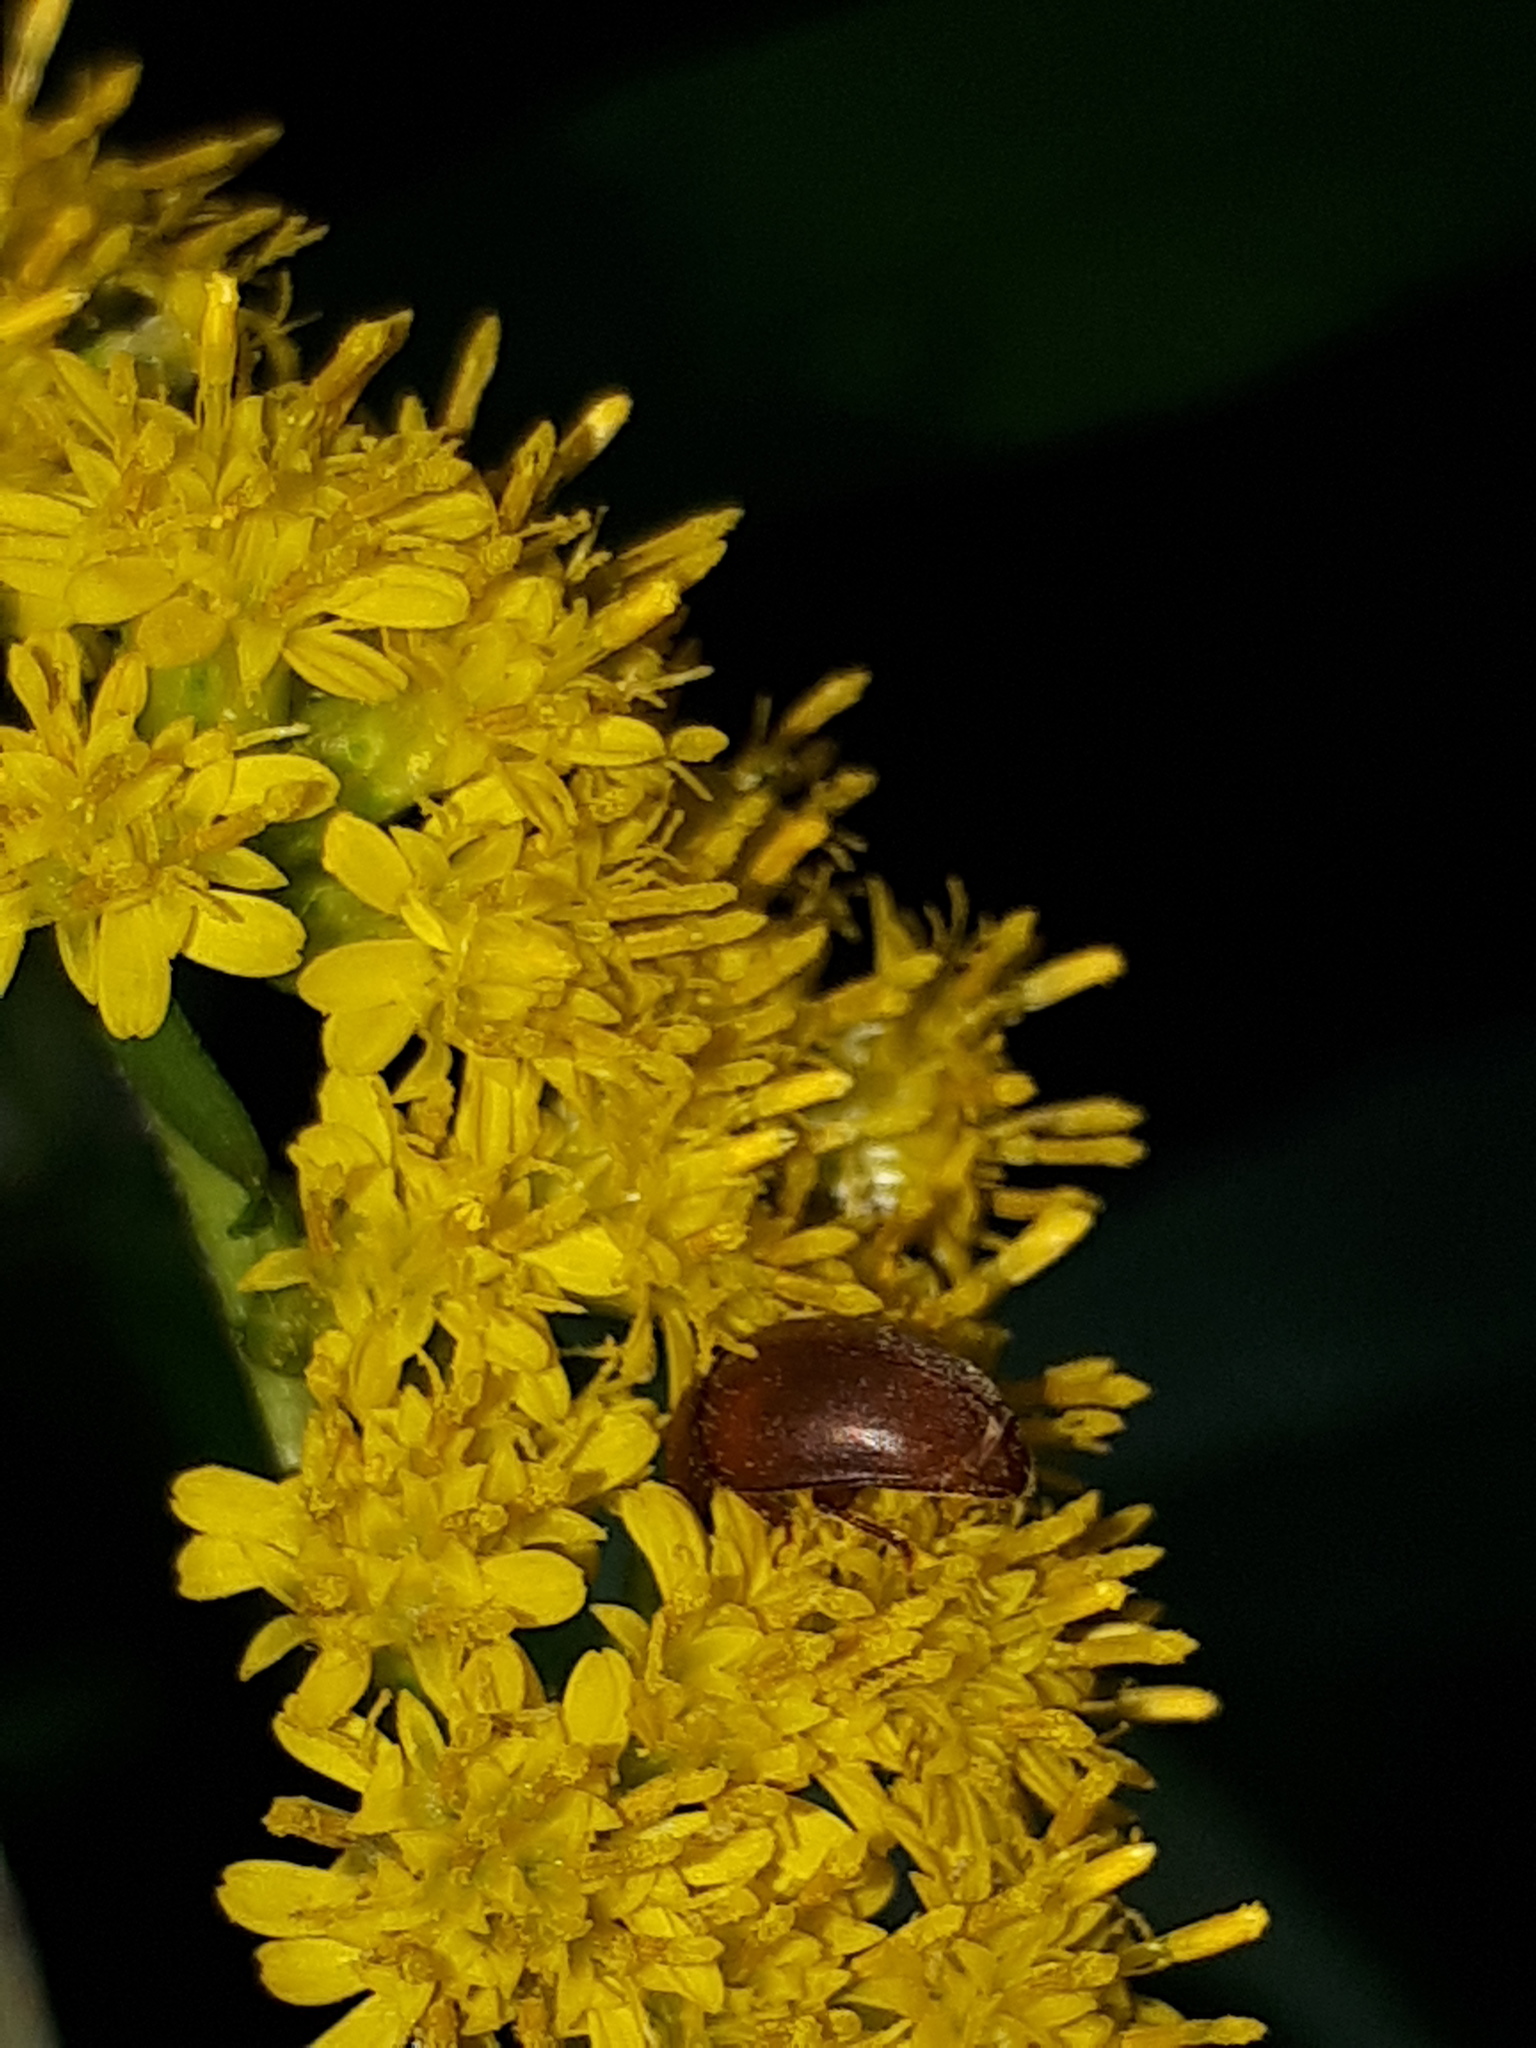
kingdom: Animalia
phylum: Arthropoda
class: Insecta
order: Coleoptera
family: Nitidulidae
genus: Cychramus
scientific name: Cychramus luteus
